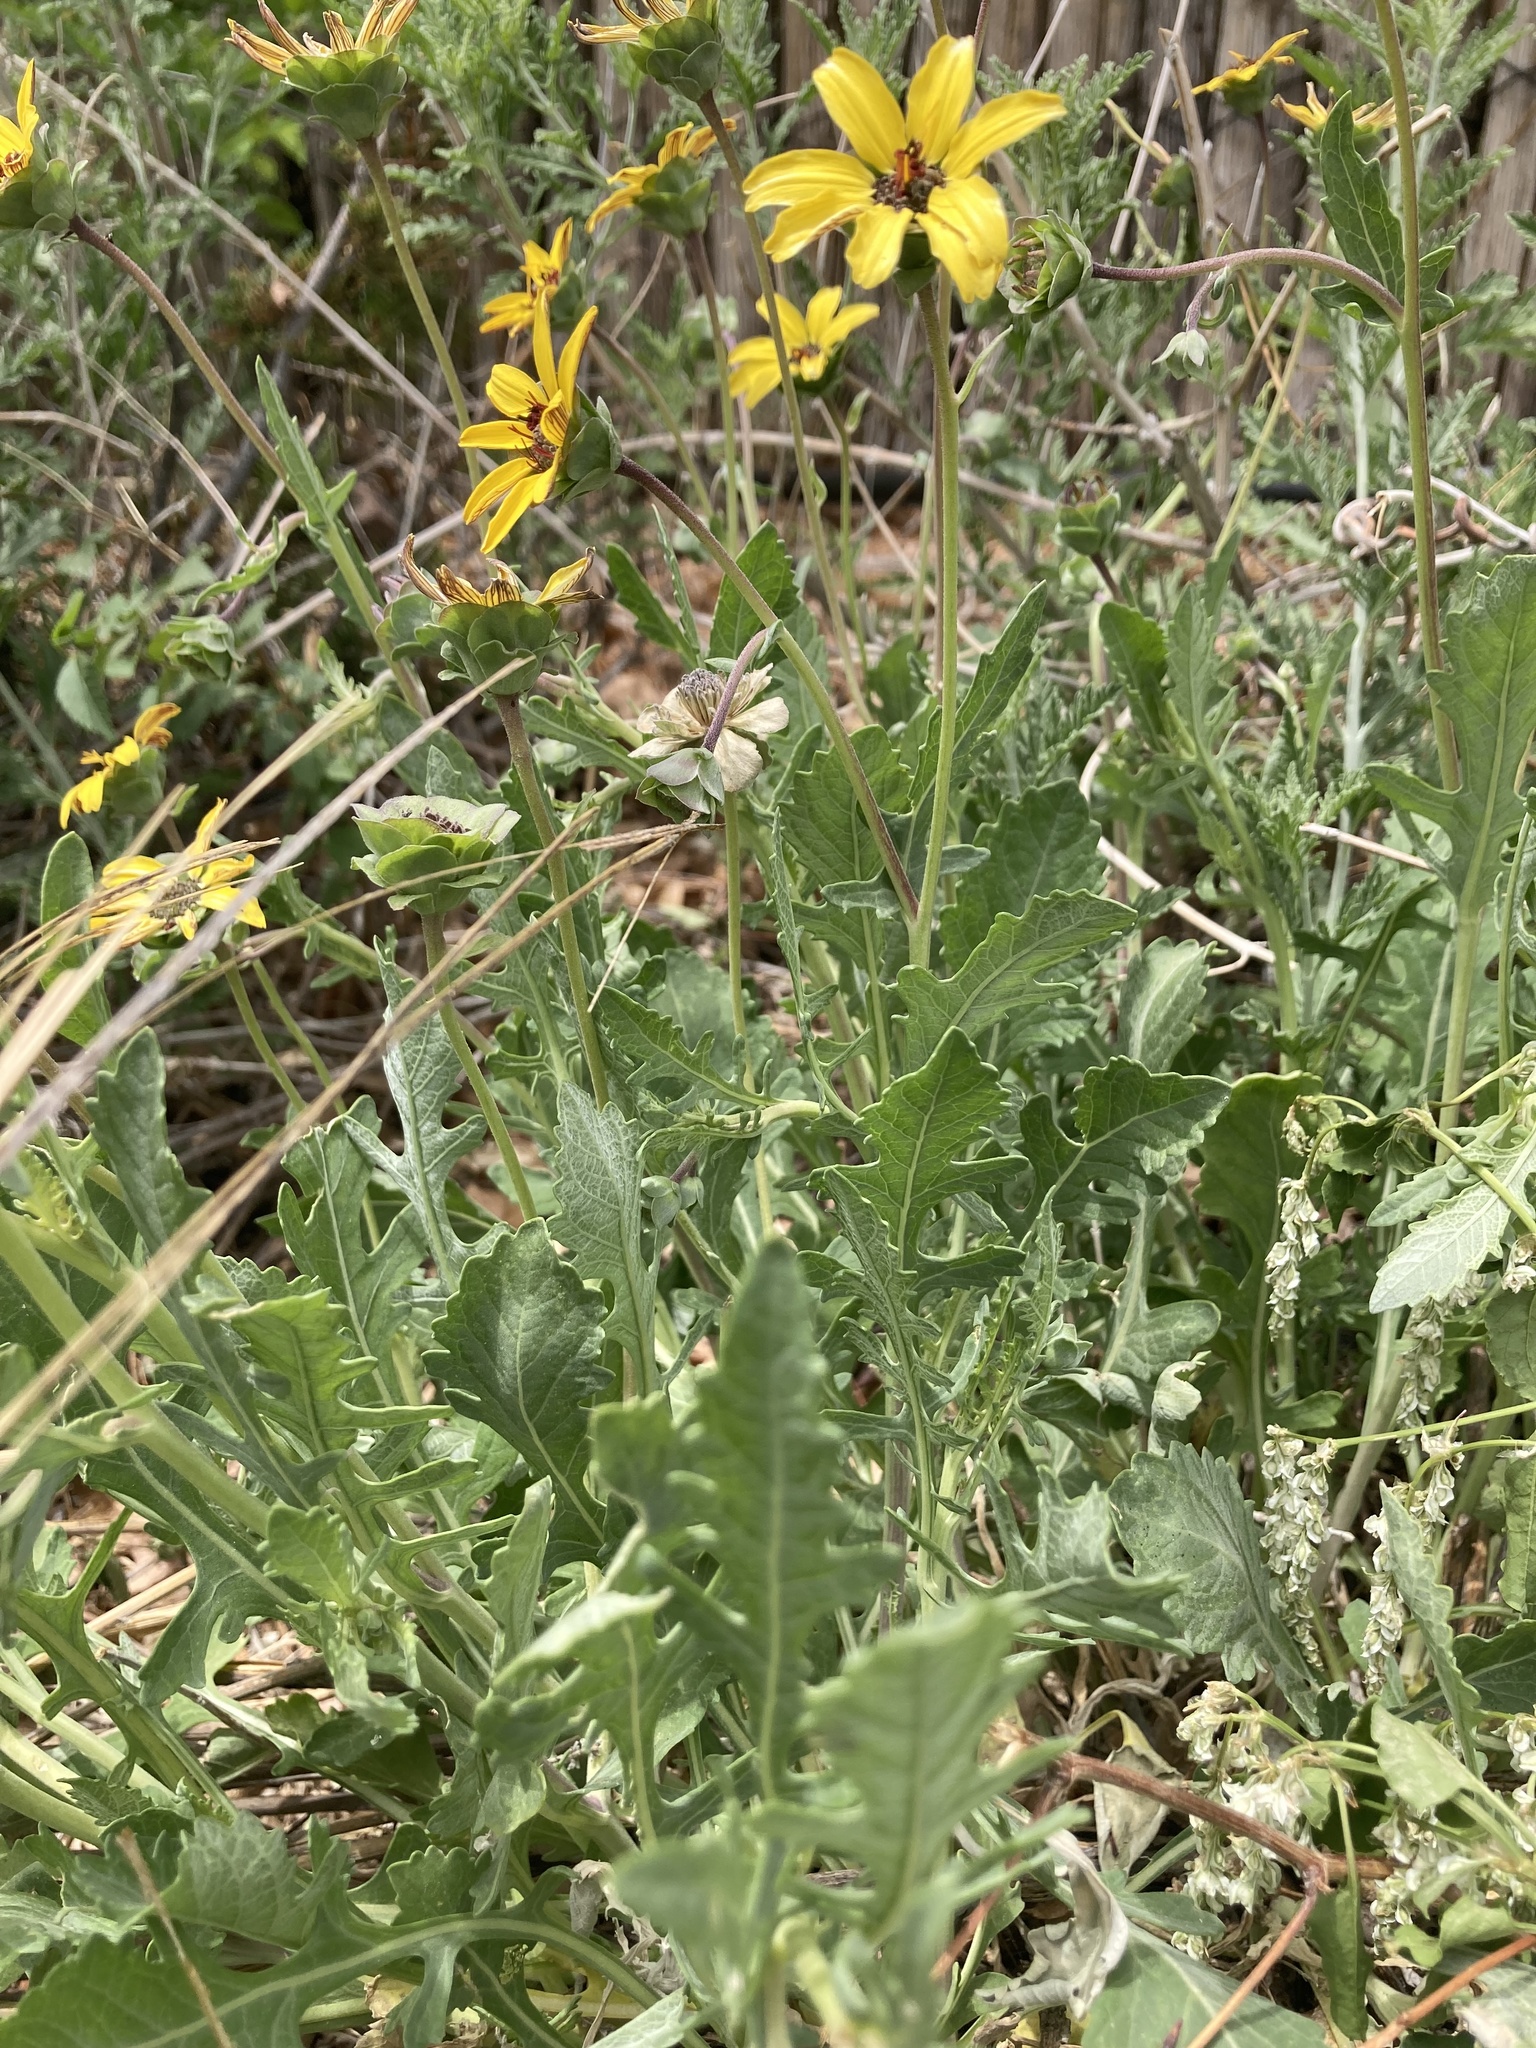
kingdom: Plantae
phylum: Tracheophyta
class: Magnoliopsida
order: Asterales
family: Asteraceae
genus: Berlandiera
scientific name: Berlandiera lyrata
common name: Chocolate-flower
